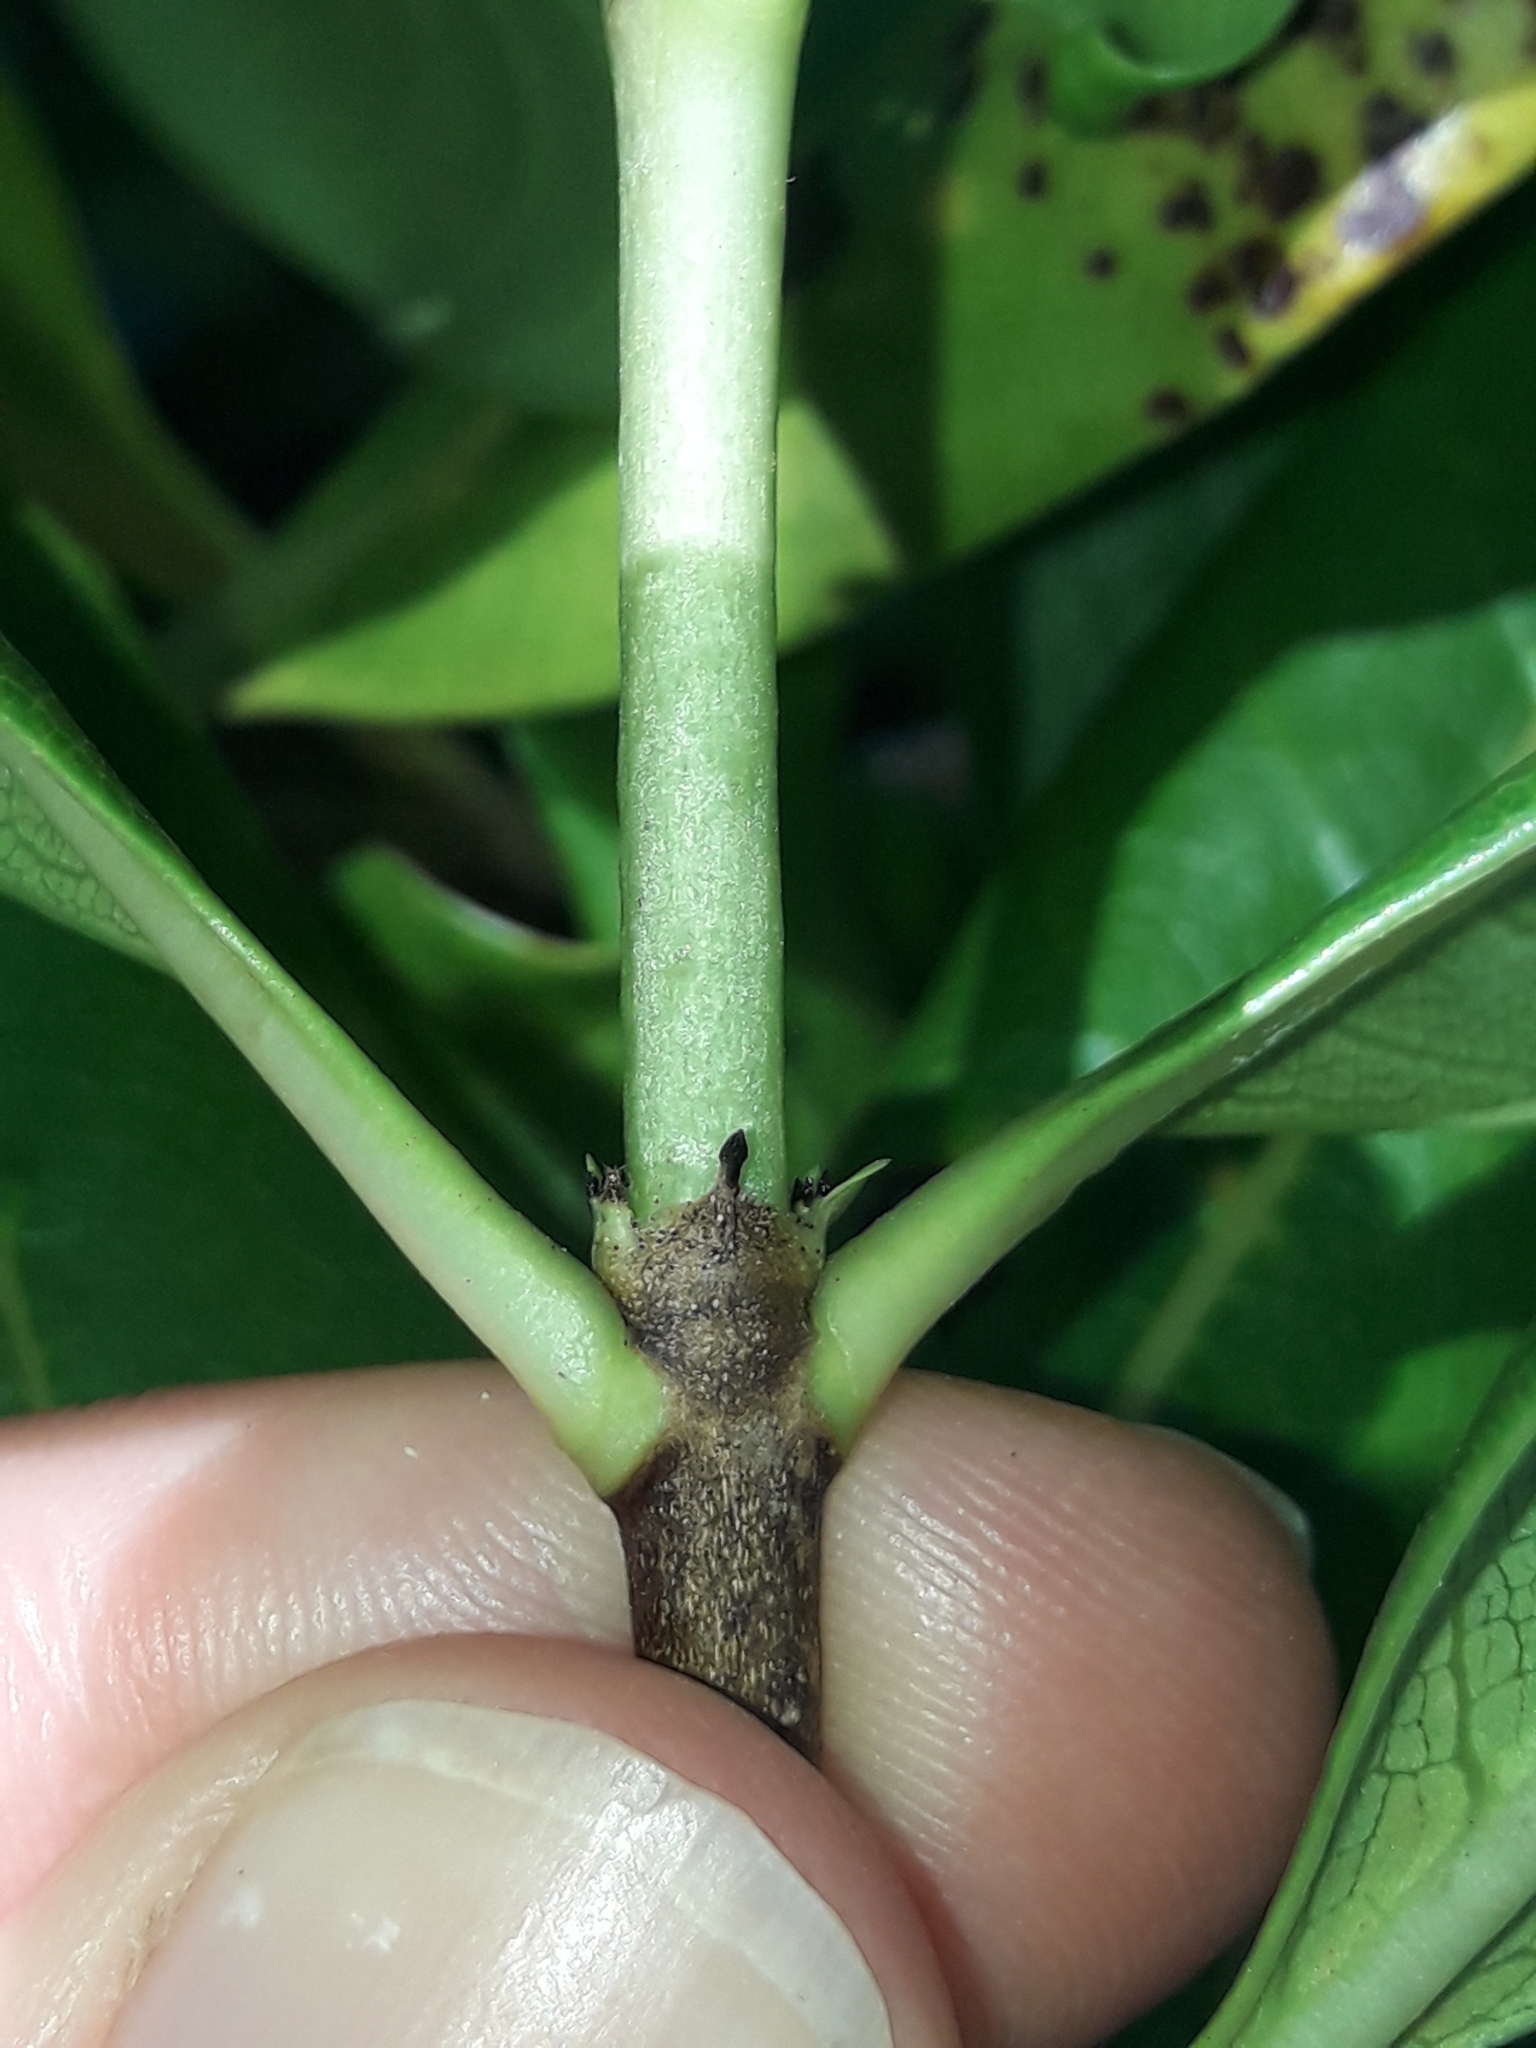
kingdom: Plantae
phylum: Tracheophyta
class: Magnoliopsida
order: Gentianales
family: Rubiaceae
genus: Coprosma
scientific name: Coprosma macrocarpa
